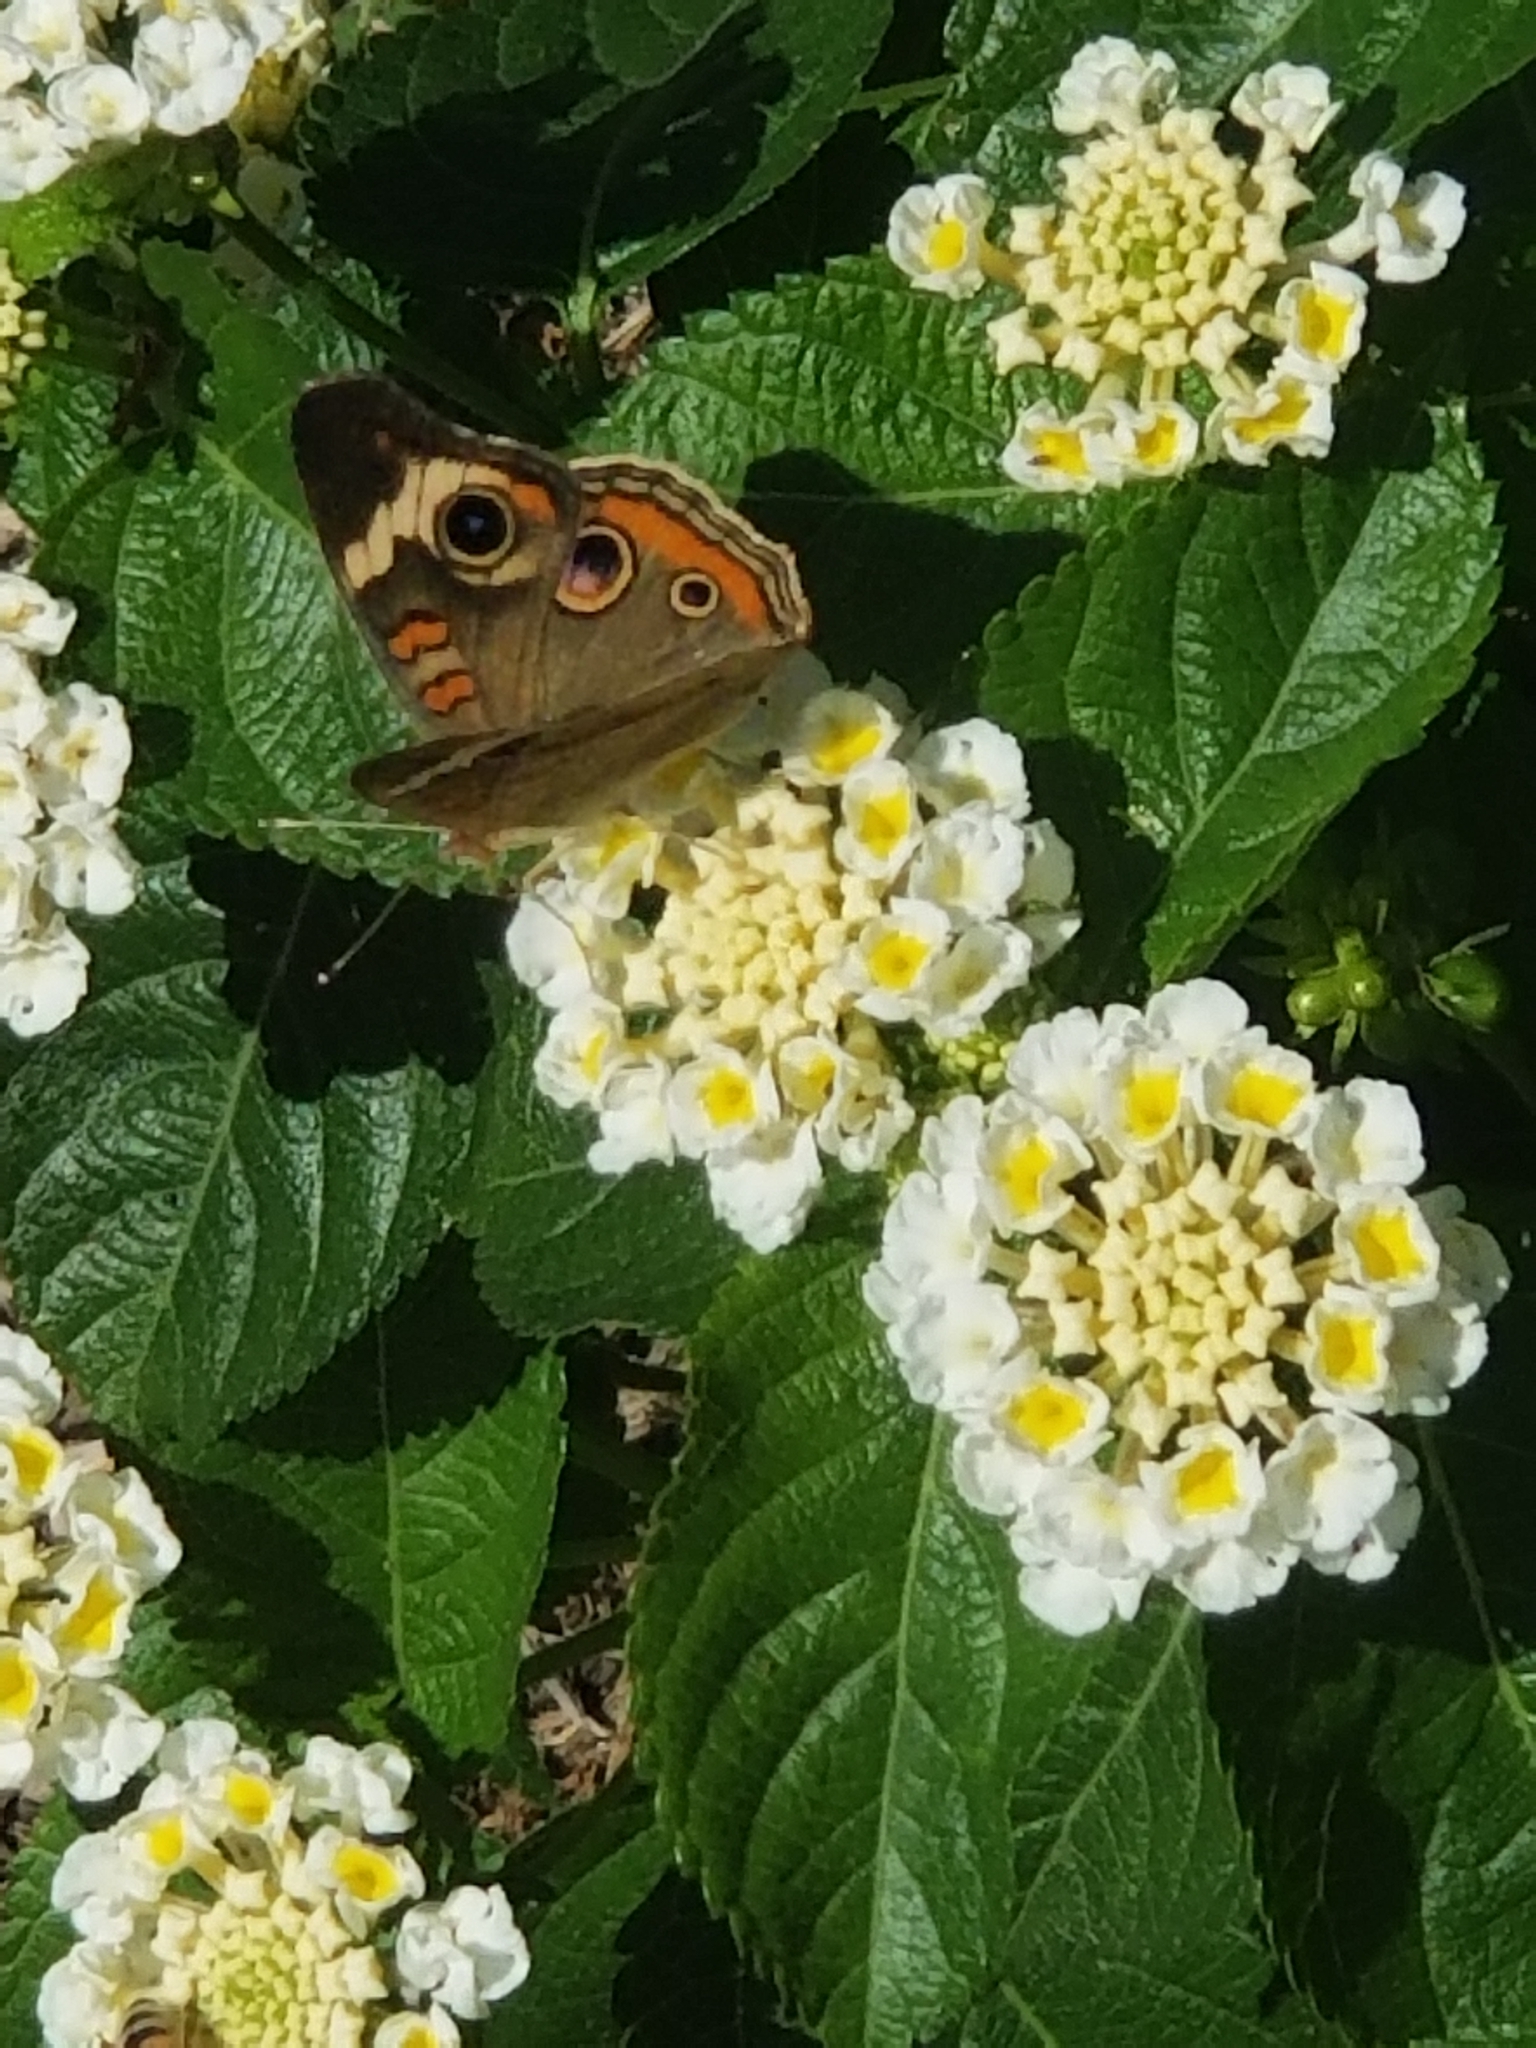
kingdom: Animalia
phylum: Arthropoda
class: Insecta
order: Lepidoptera
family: Nymphalidae
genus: Junonia
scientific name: Junonia coenia
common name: Common buckeye
